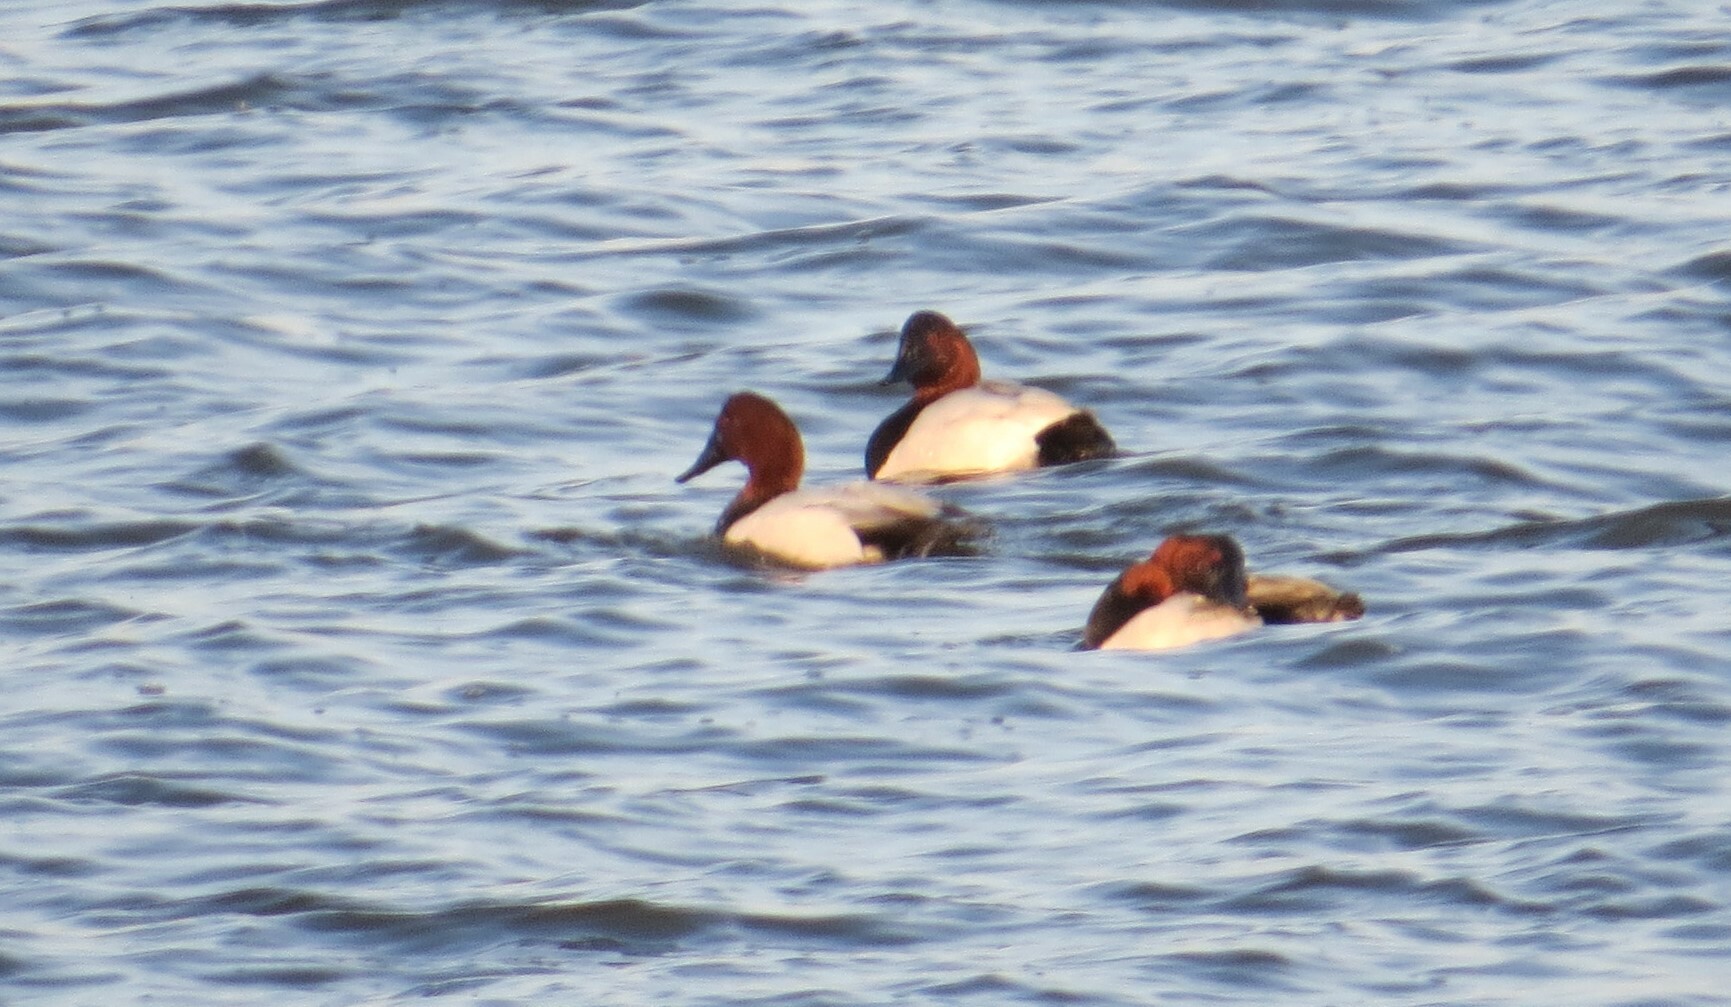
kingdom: Animalia
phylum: Chordata
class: Aves
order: Anseriformes
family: Anatidae
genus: Aythya
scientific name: Aythya valisineria
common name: Canvasback
